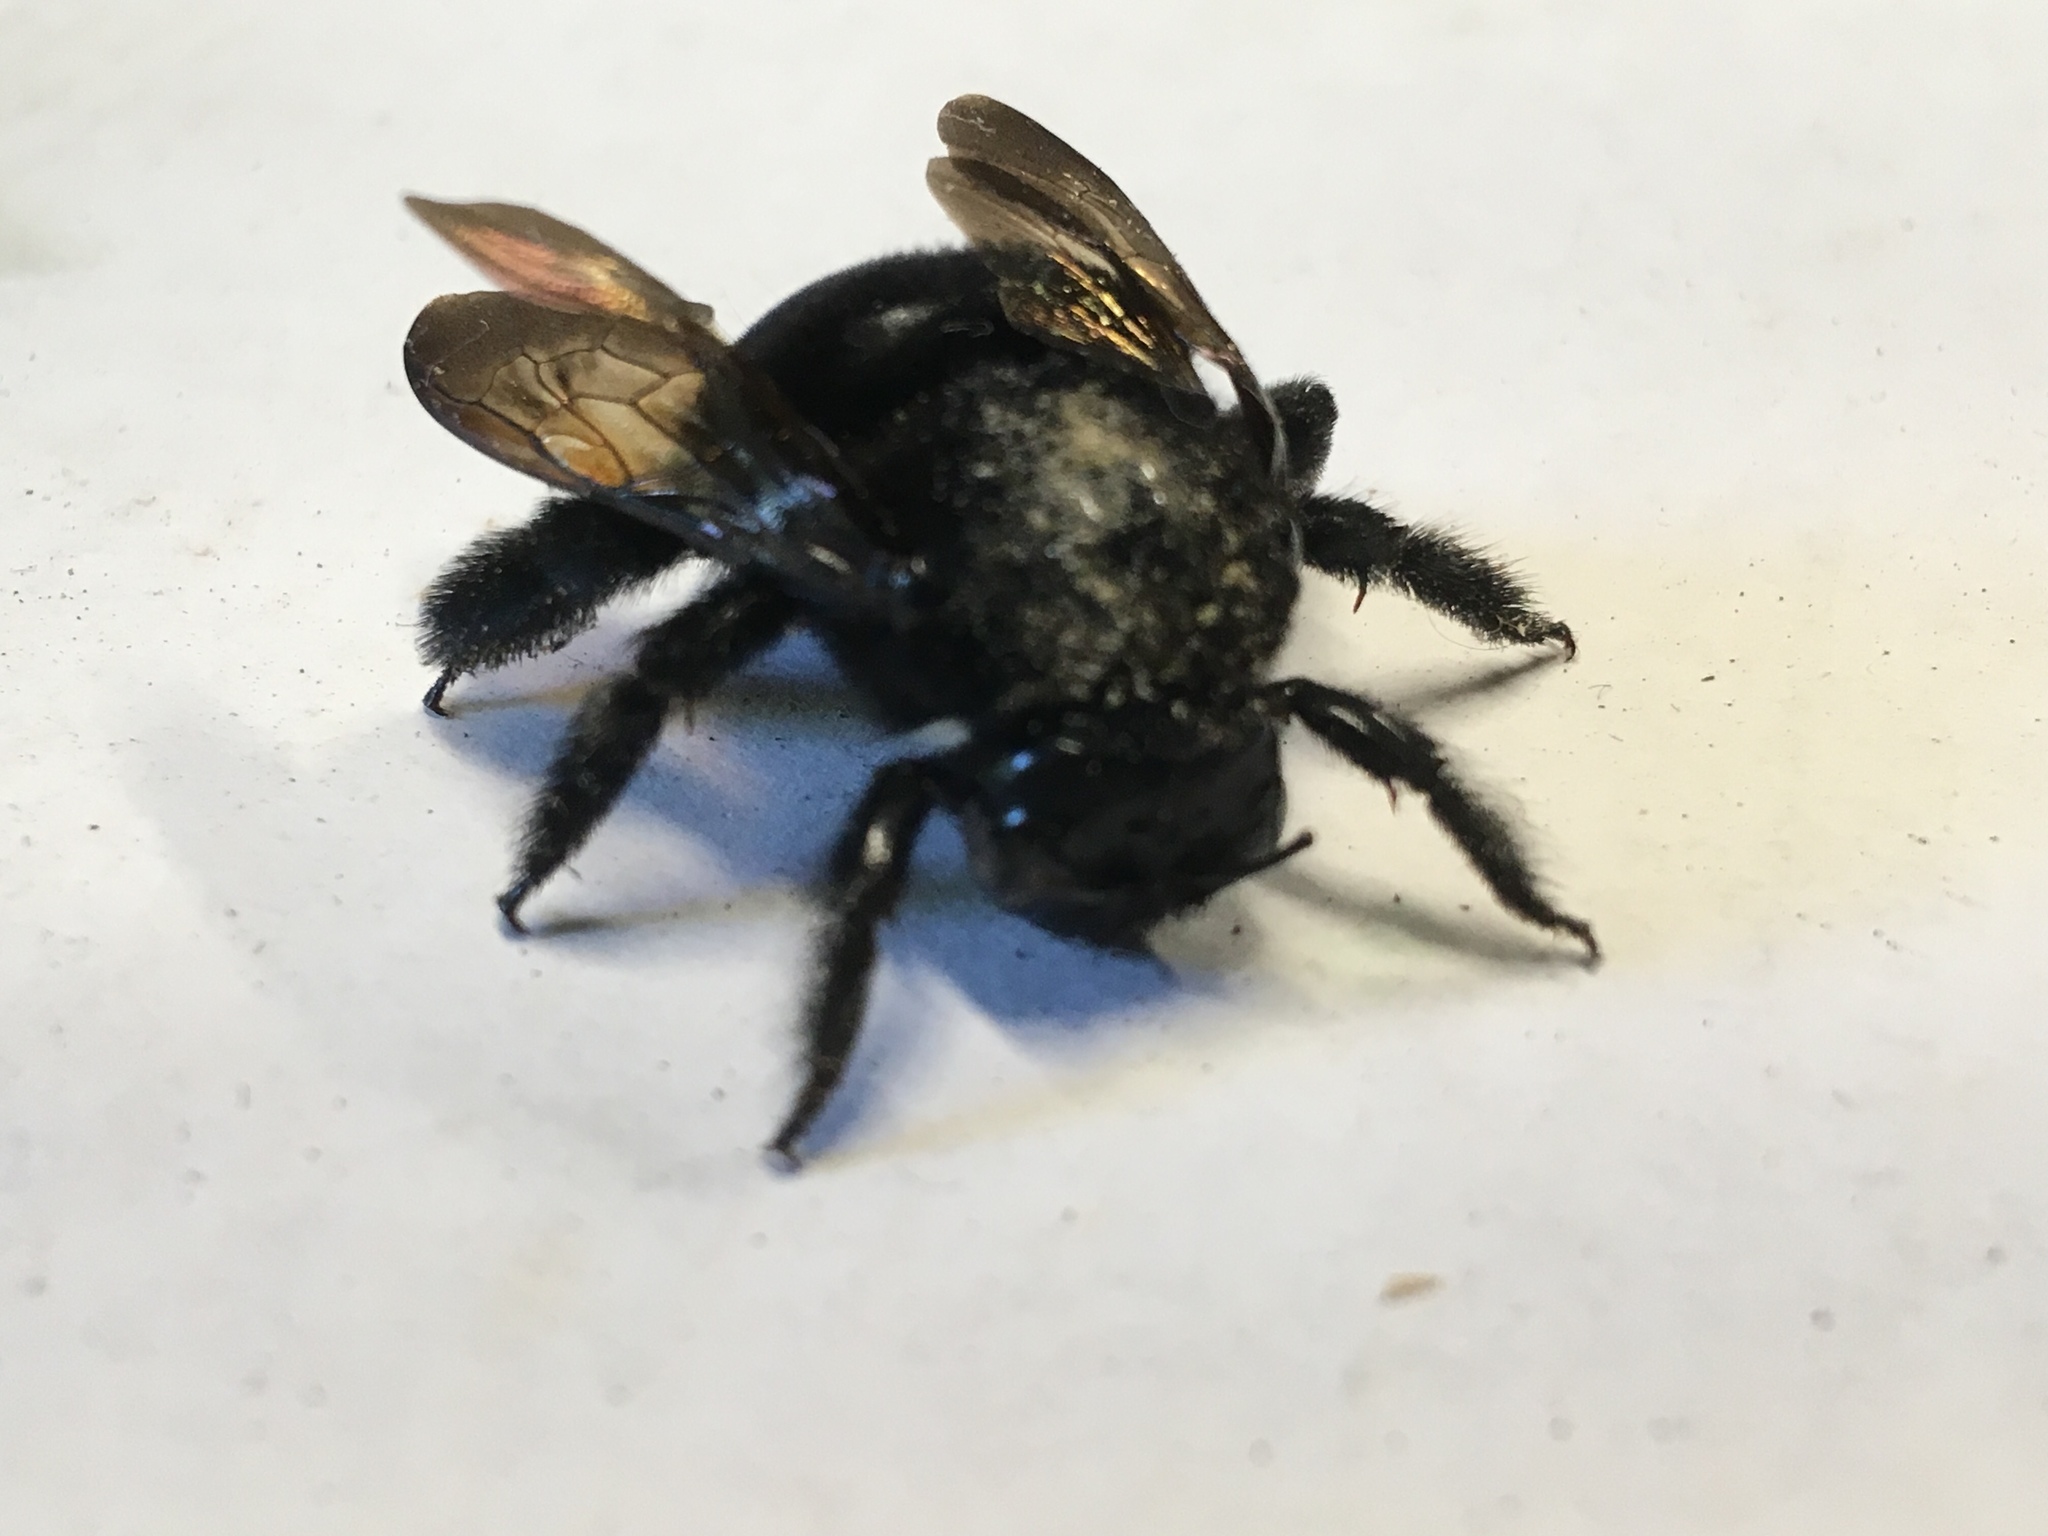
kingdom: Animalia
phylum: Arthropoda
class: Insecta
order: Hymenoptera
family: Apidae
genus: Xylocopa
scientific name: Xylocopa sonorina
